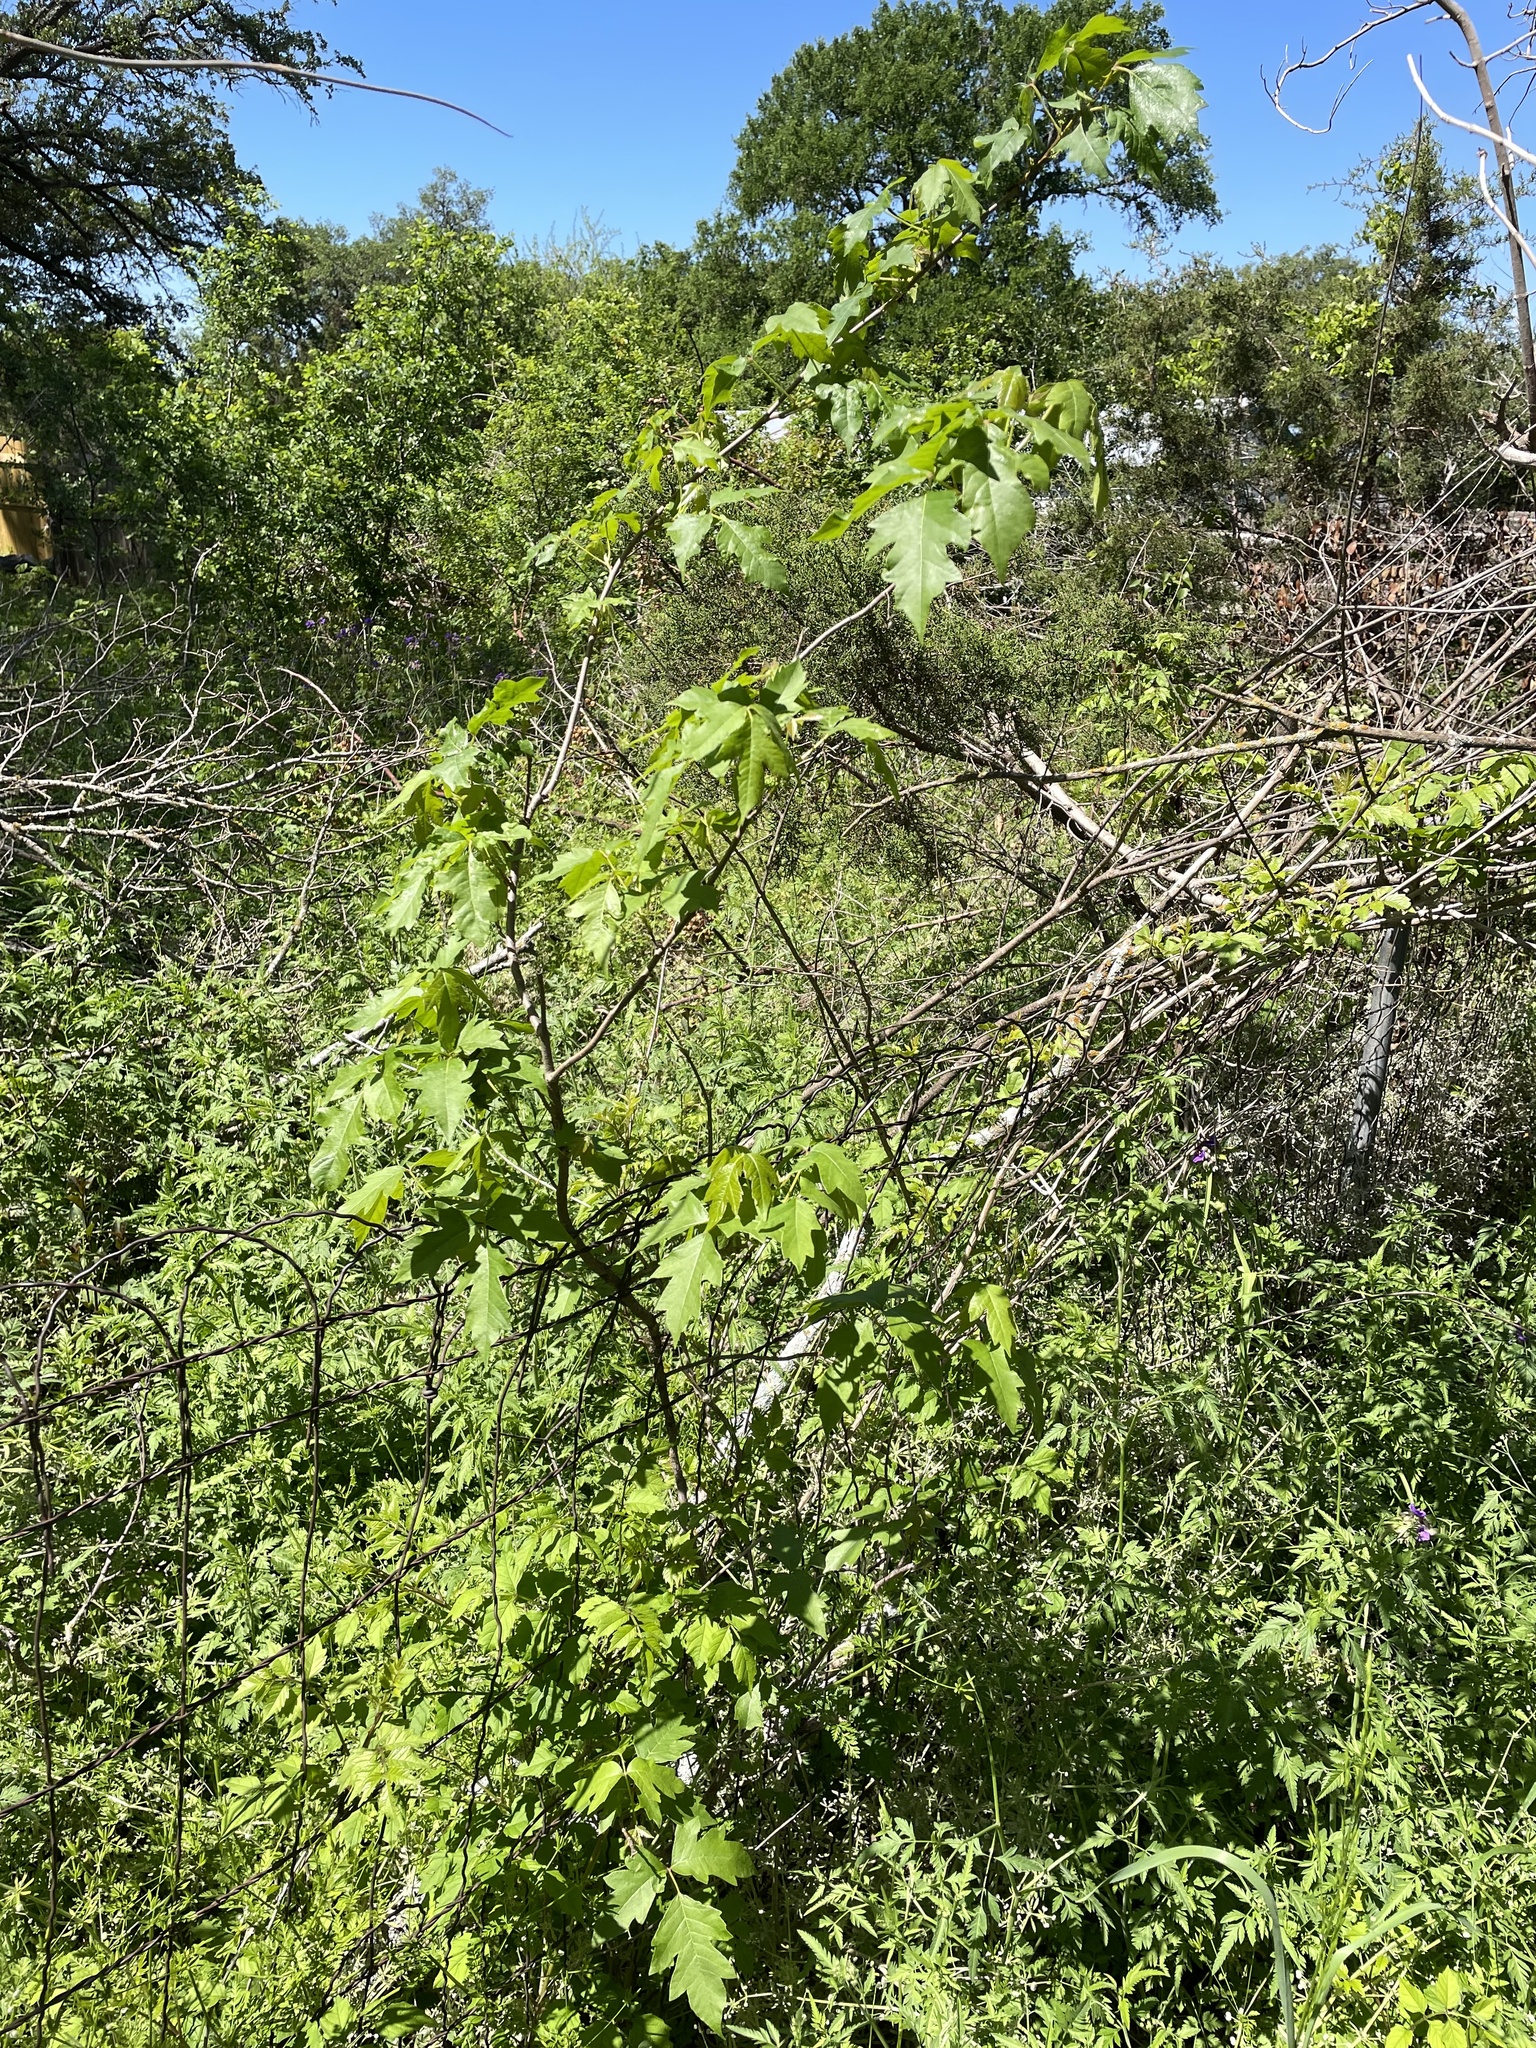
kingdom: Plantae
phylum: Tracheophyta
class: Magnoliopsida
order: Sapindales
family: Anacardiaceae
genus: Toxicodendron
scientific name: Toxicodendron radicans
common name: Poison ivy
